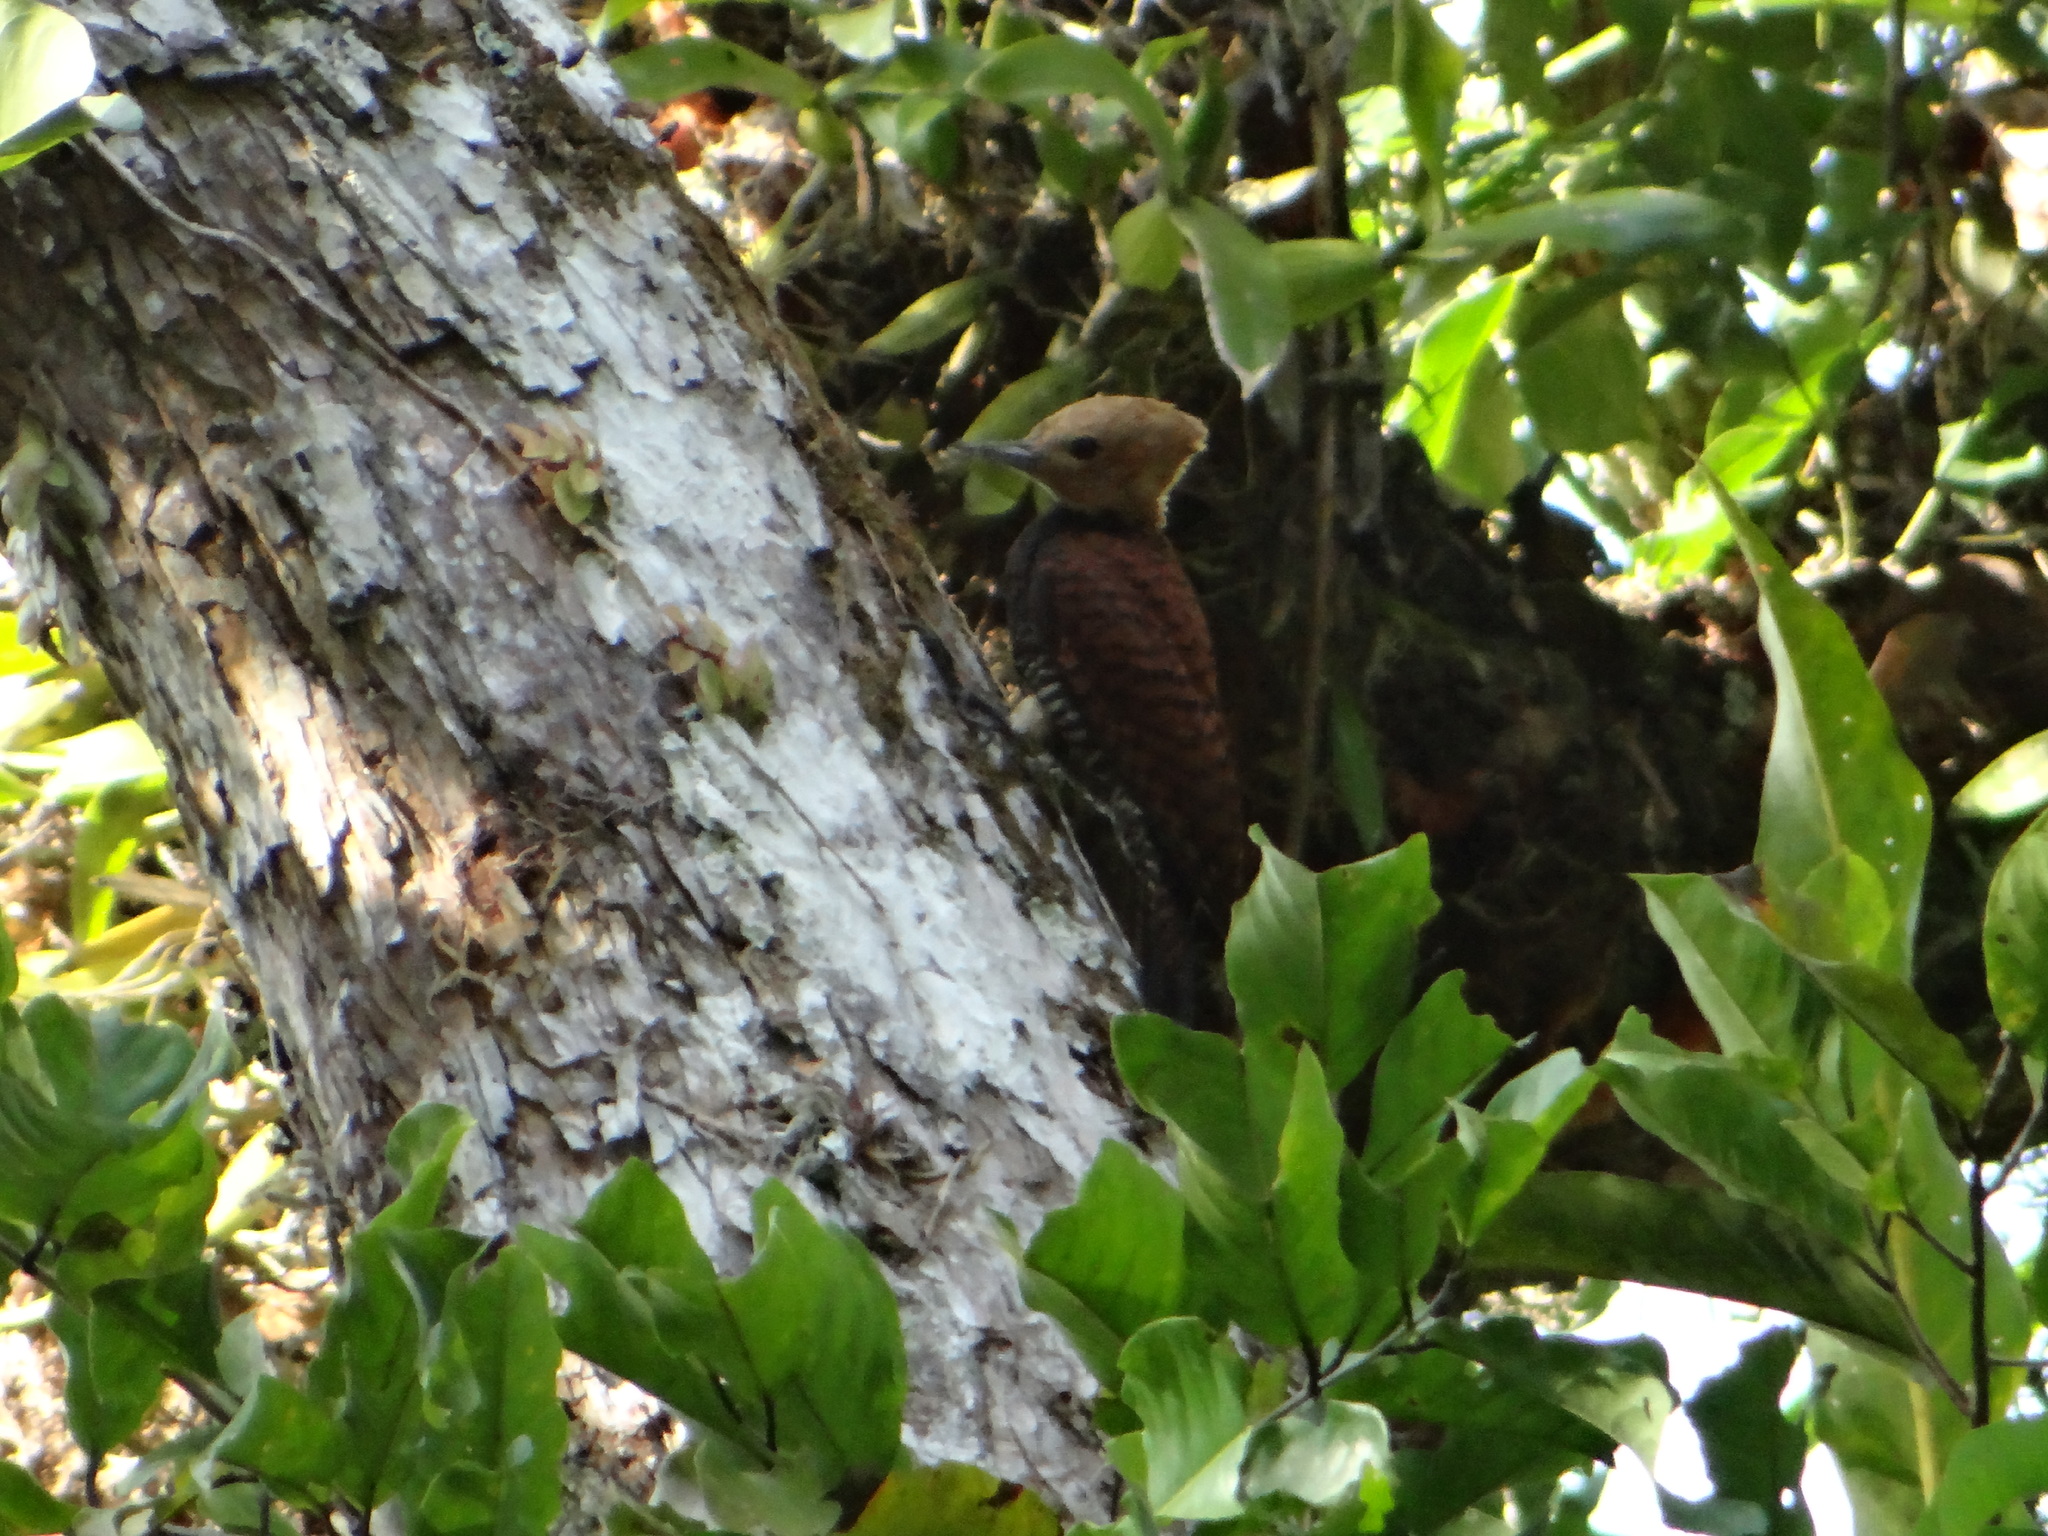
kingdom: Animalia
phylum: Chordata
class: Aves
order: Piciformes
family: Picidae
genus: Celeus
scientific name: Celeus torquatus
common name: Ringed woodpecker
